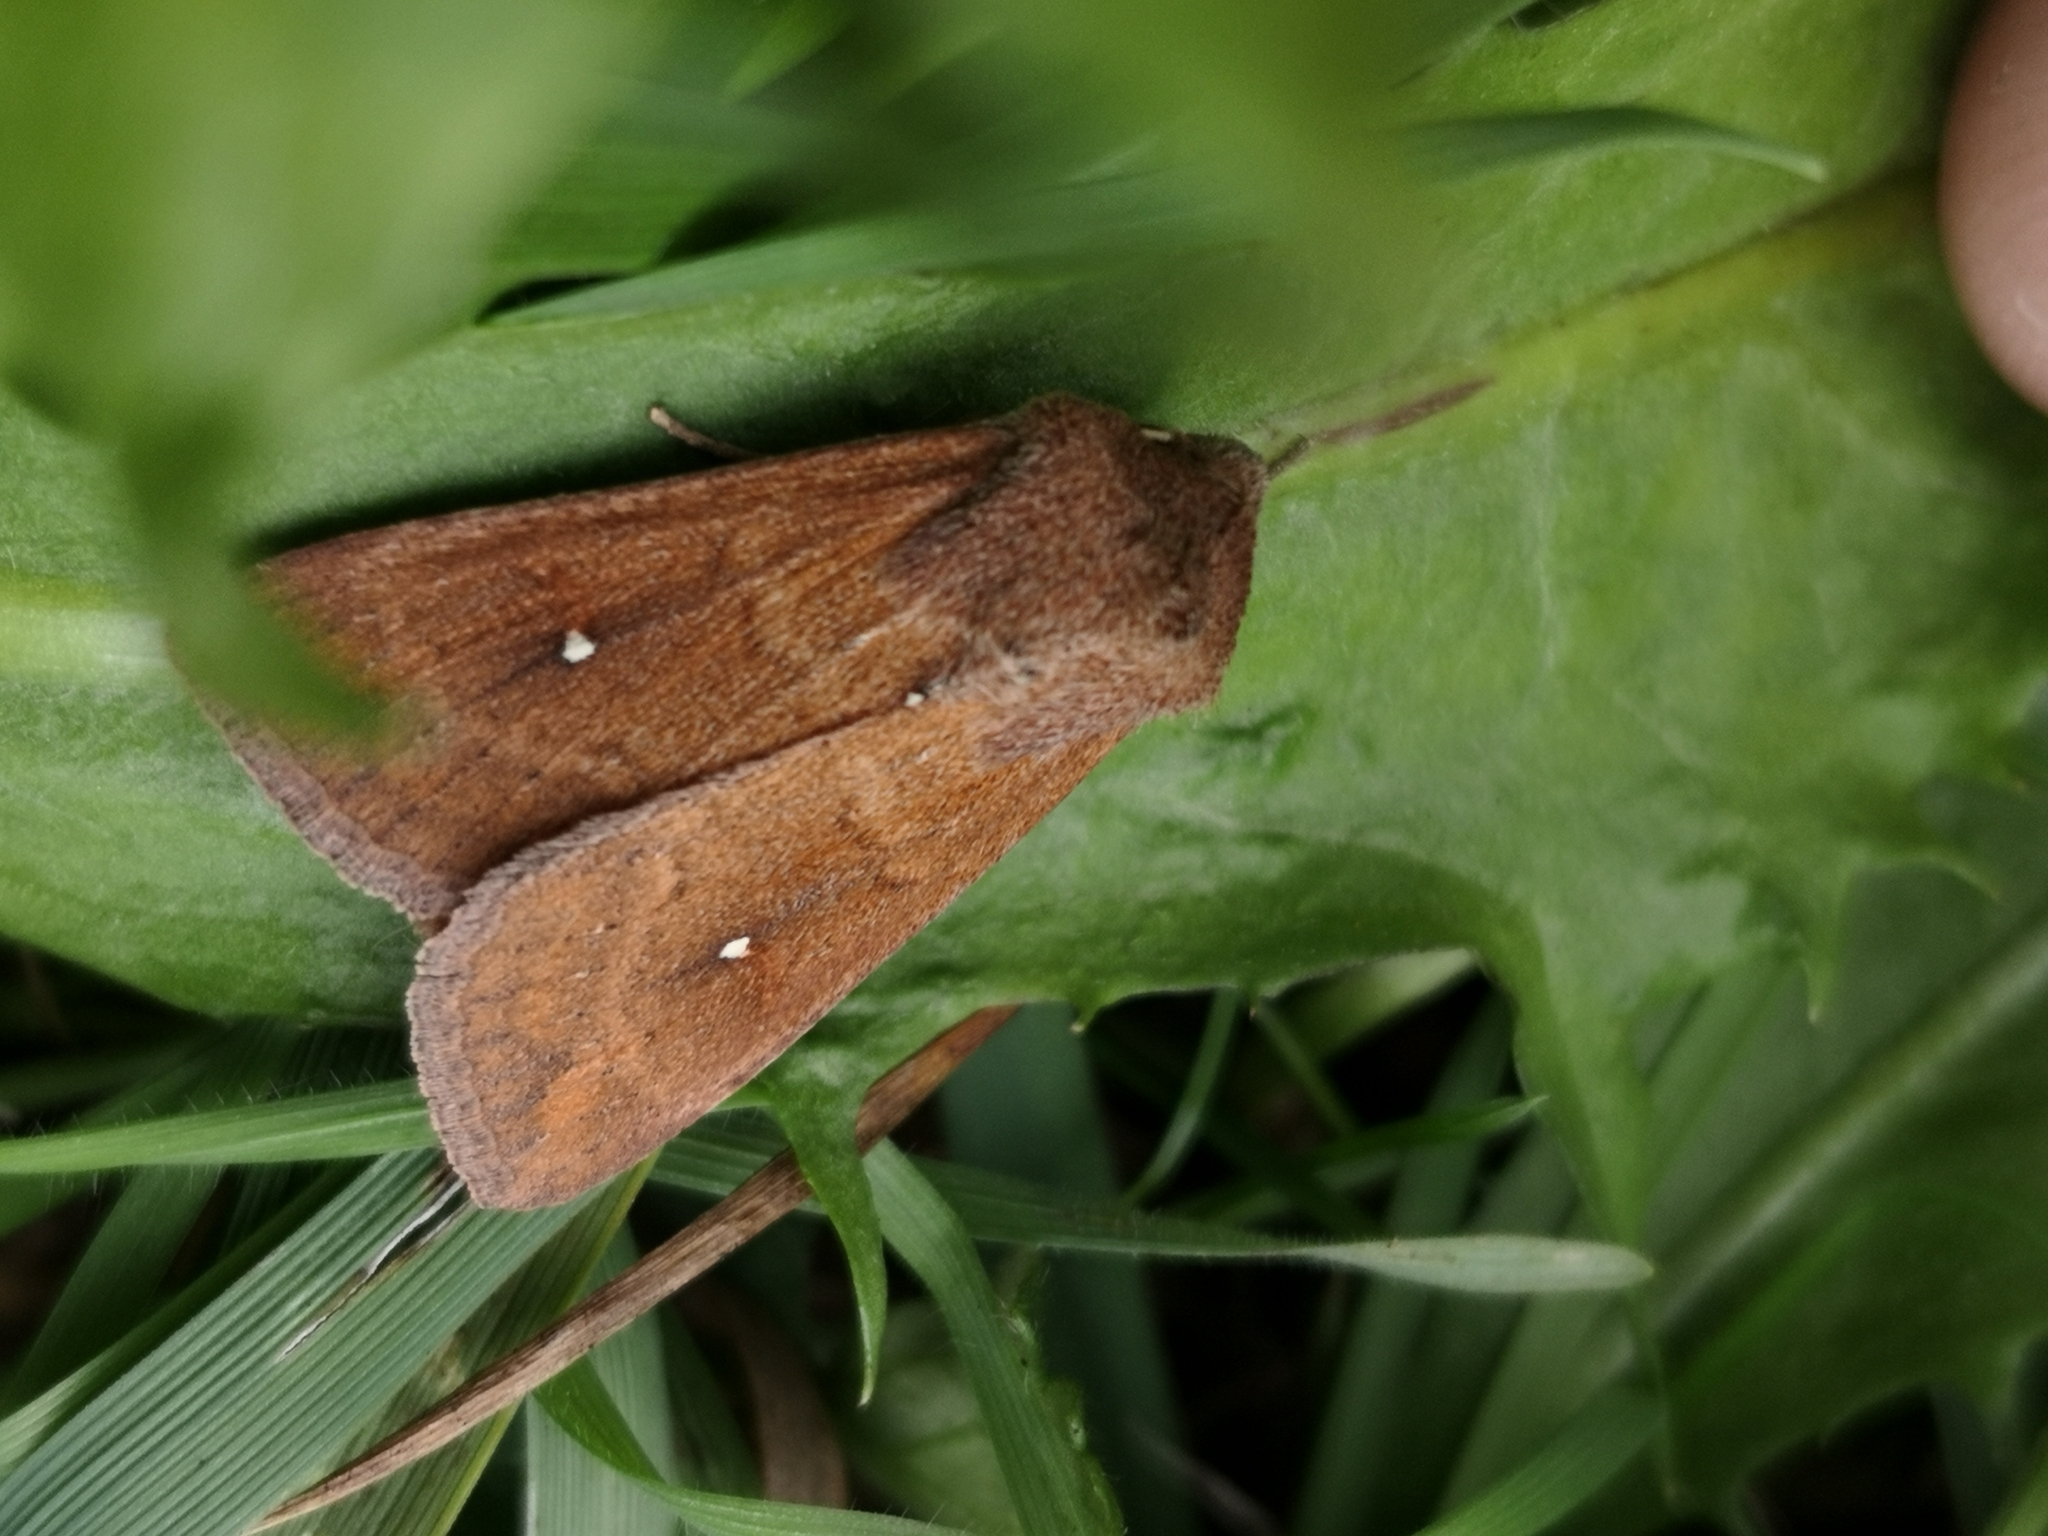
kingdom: Animalia
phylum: Arthropoda
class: Insecta
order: Lepidoptera
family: Noctuidae
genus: Mythimna
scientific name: Mythimna albipuncta
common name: White-point
